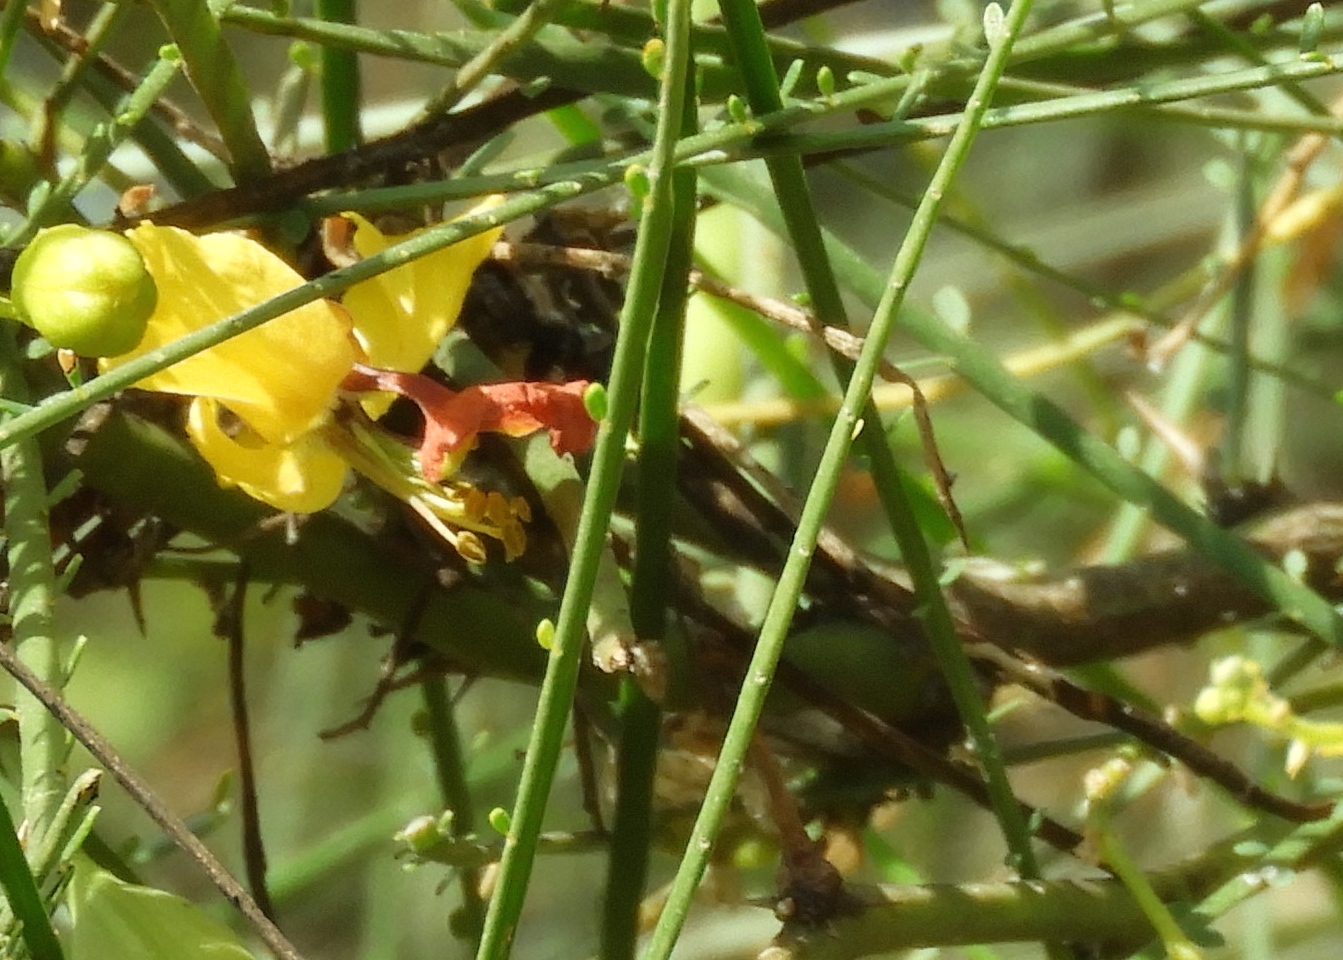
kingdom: Plantae
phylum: Tracheophyta
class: Magnoliopsida
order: Fabales
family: Fabaceae
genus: Parkinsonia
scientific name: Parkinsonia aculeata
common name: Jerusalem thorn
